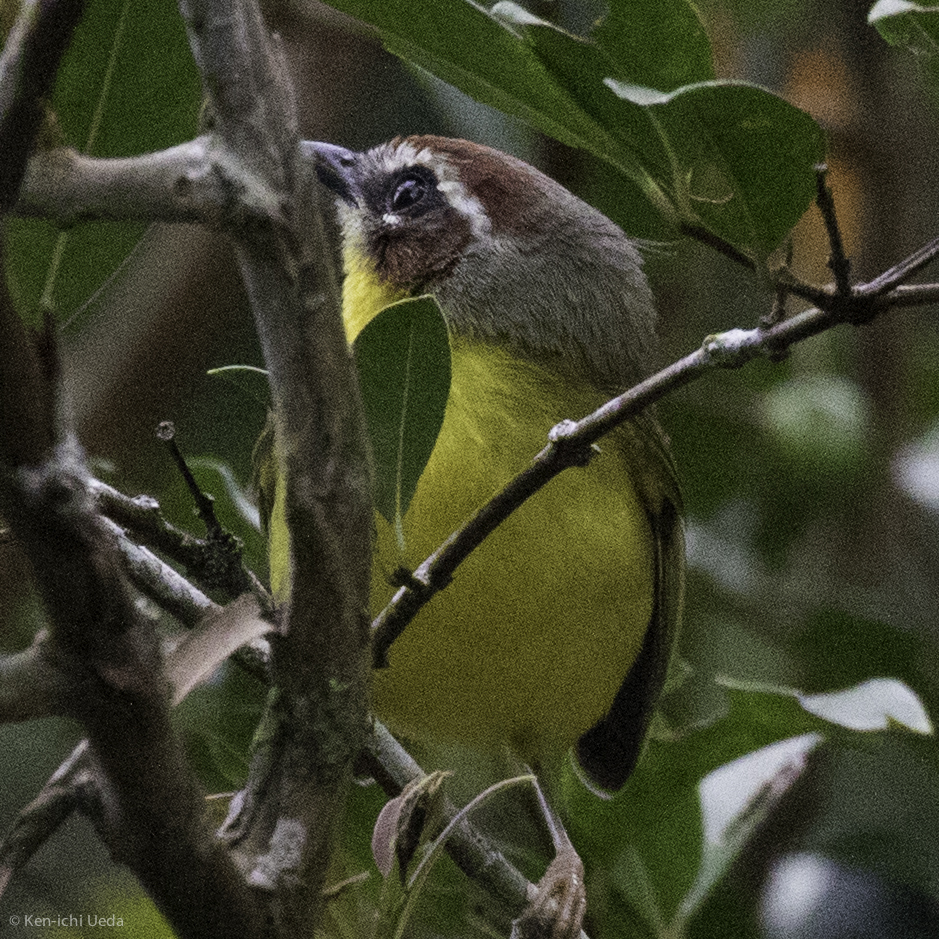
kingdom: Animalia
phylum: Chordata
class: Aves
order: Passeriformes
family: Parulidae
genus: Basileuterus
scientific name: Basileuterus rufifrons
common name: Rufous-capped warbler
